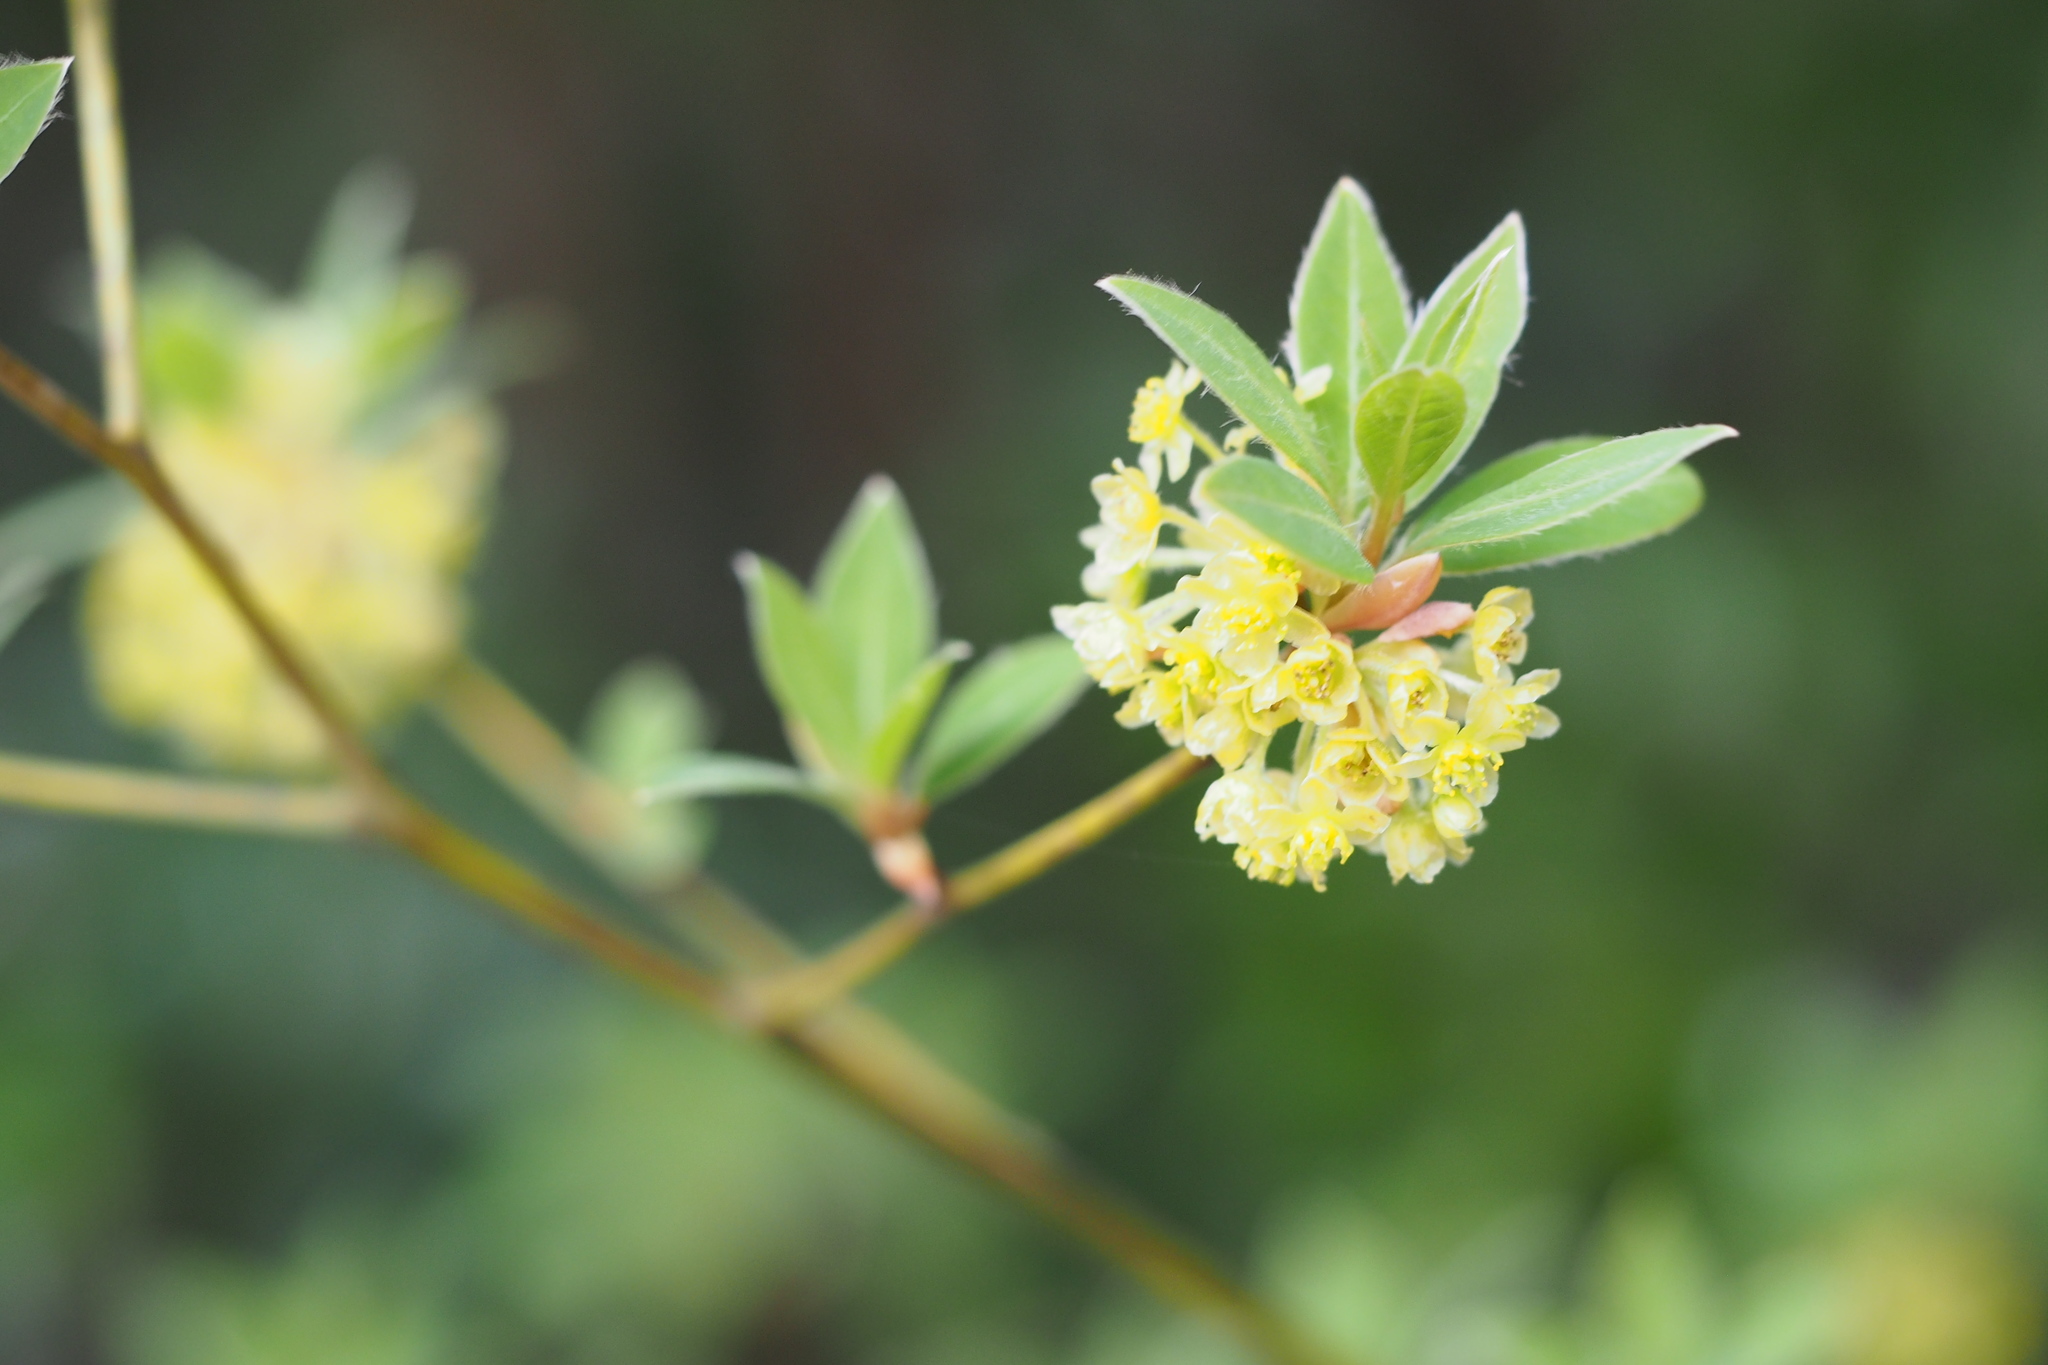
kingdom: Plantae
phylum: Tracheophyta
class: Magnoliopsida
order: Laurales
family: Lauraceae
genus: Lindera
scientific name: Lindera umbellata
